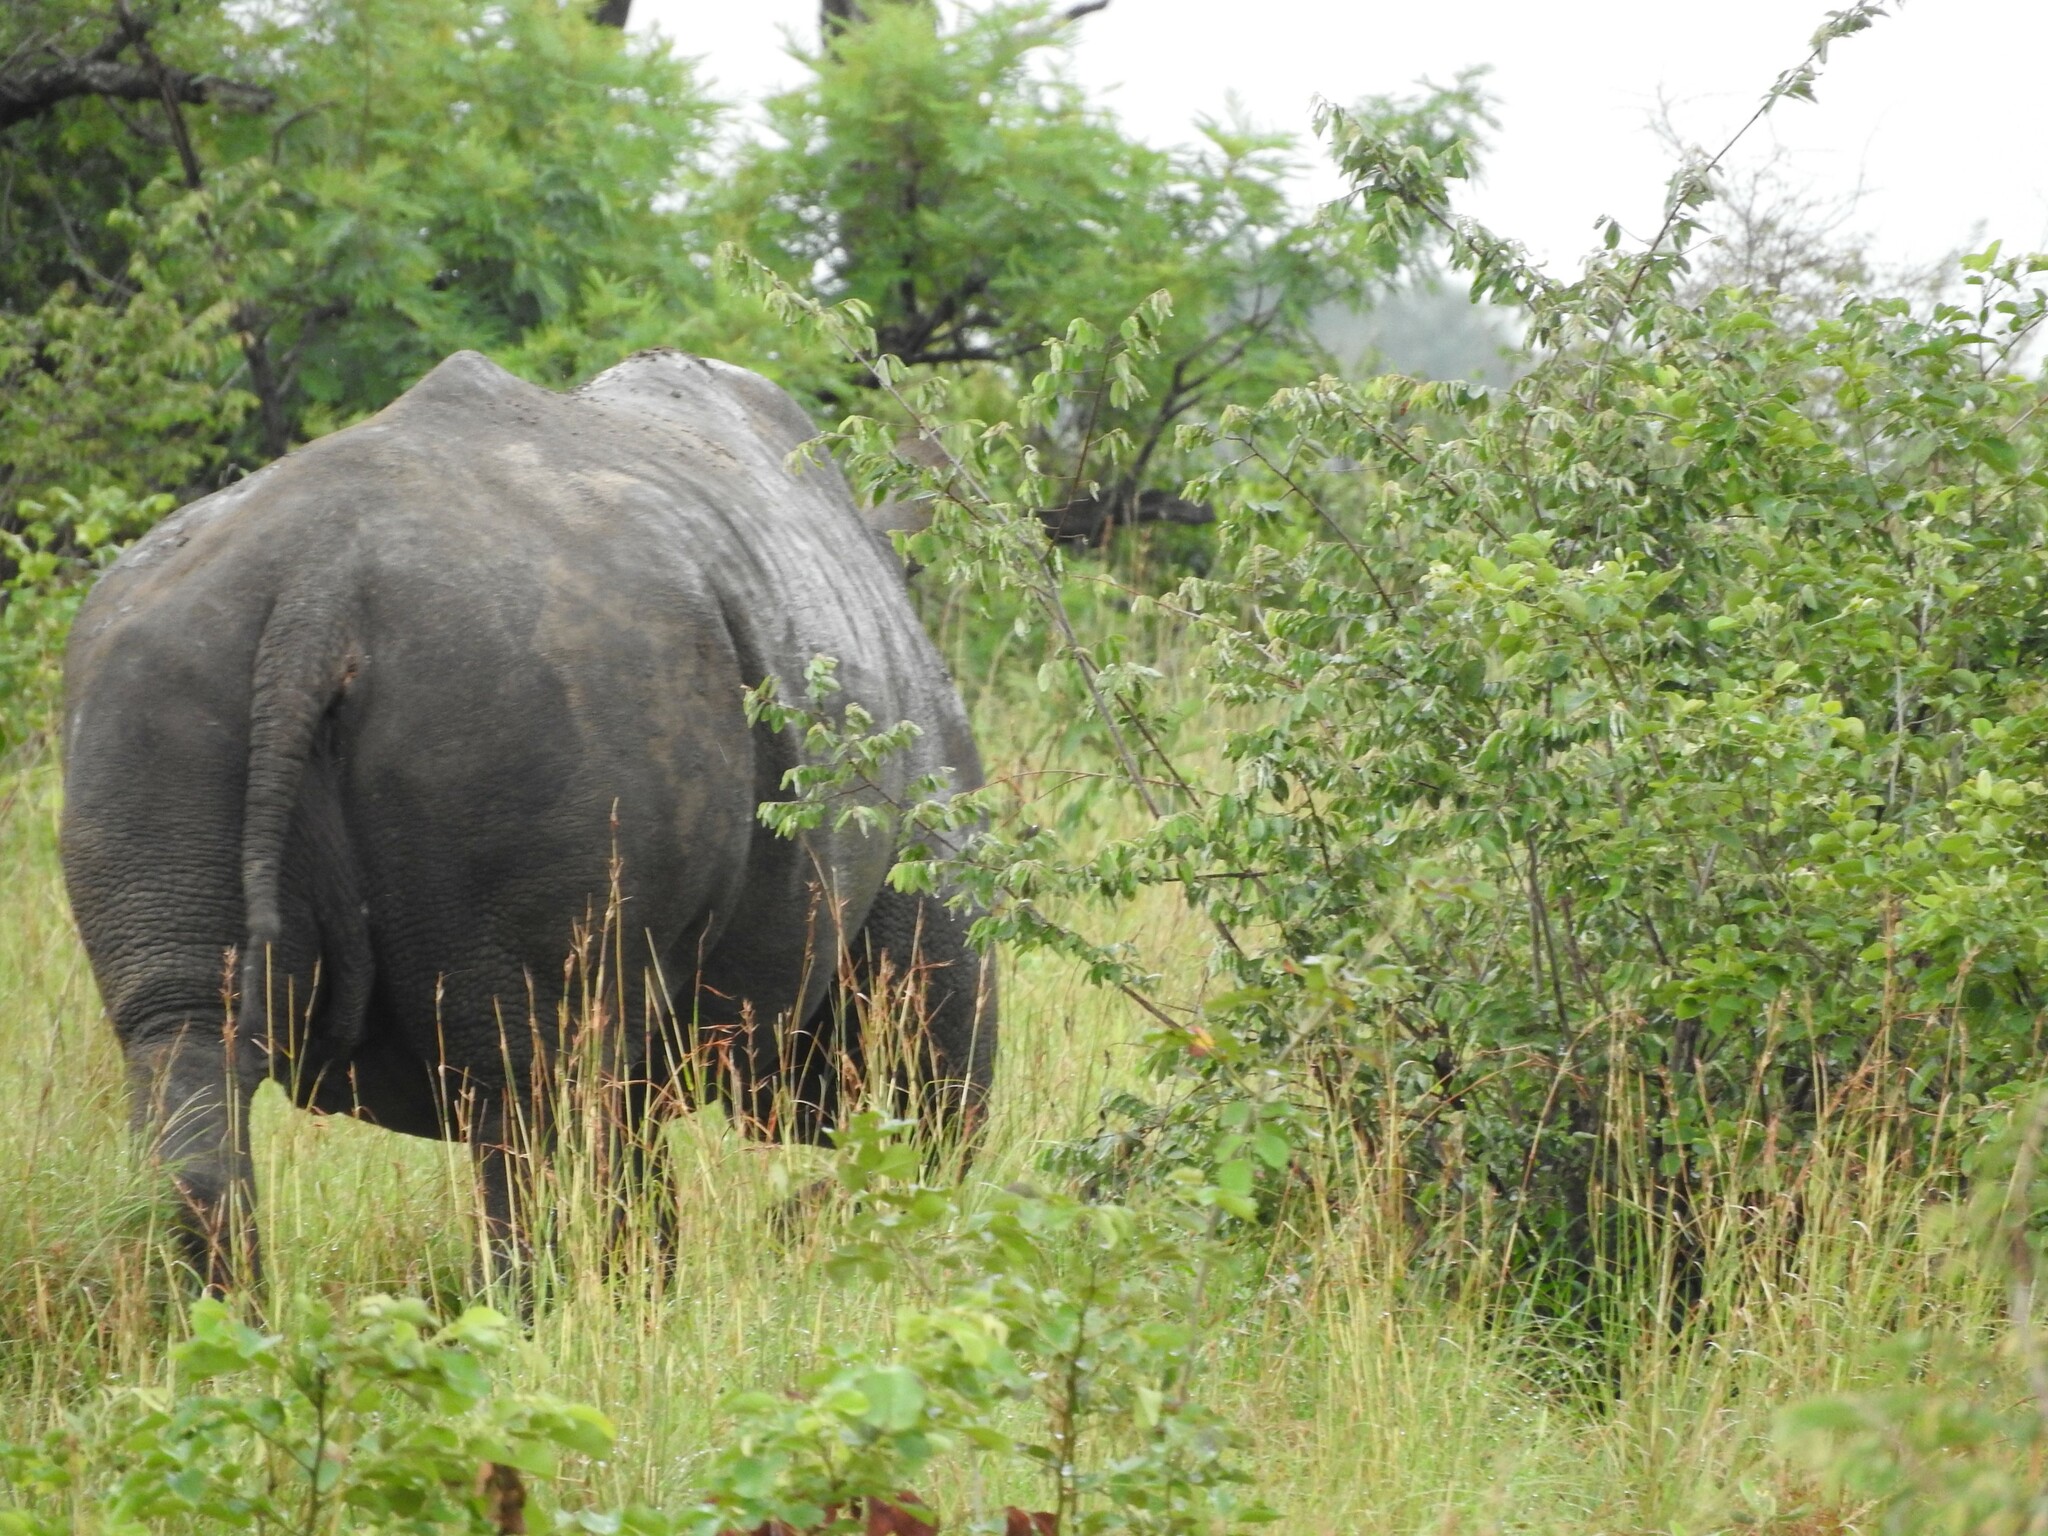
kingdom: Animalia
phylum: Chordata
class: Mammalia
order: Perissodactyla
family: Rhinocerotidae
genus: Ceratotherium
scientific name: Ceratotherium simum
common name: White rhinoceros
